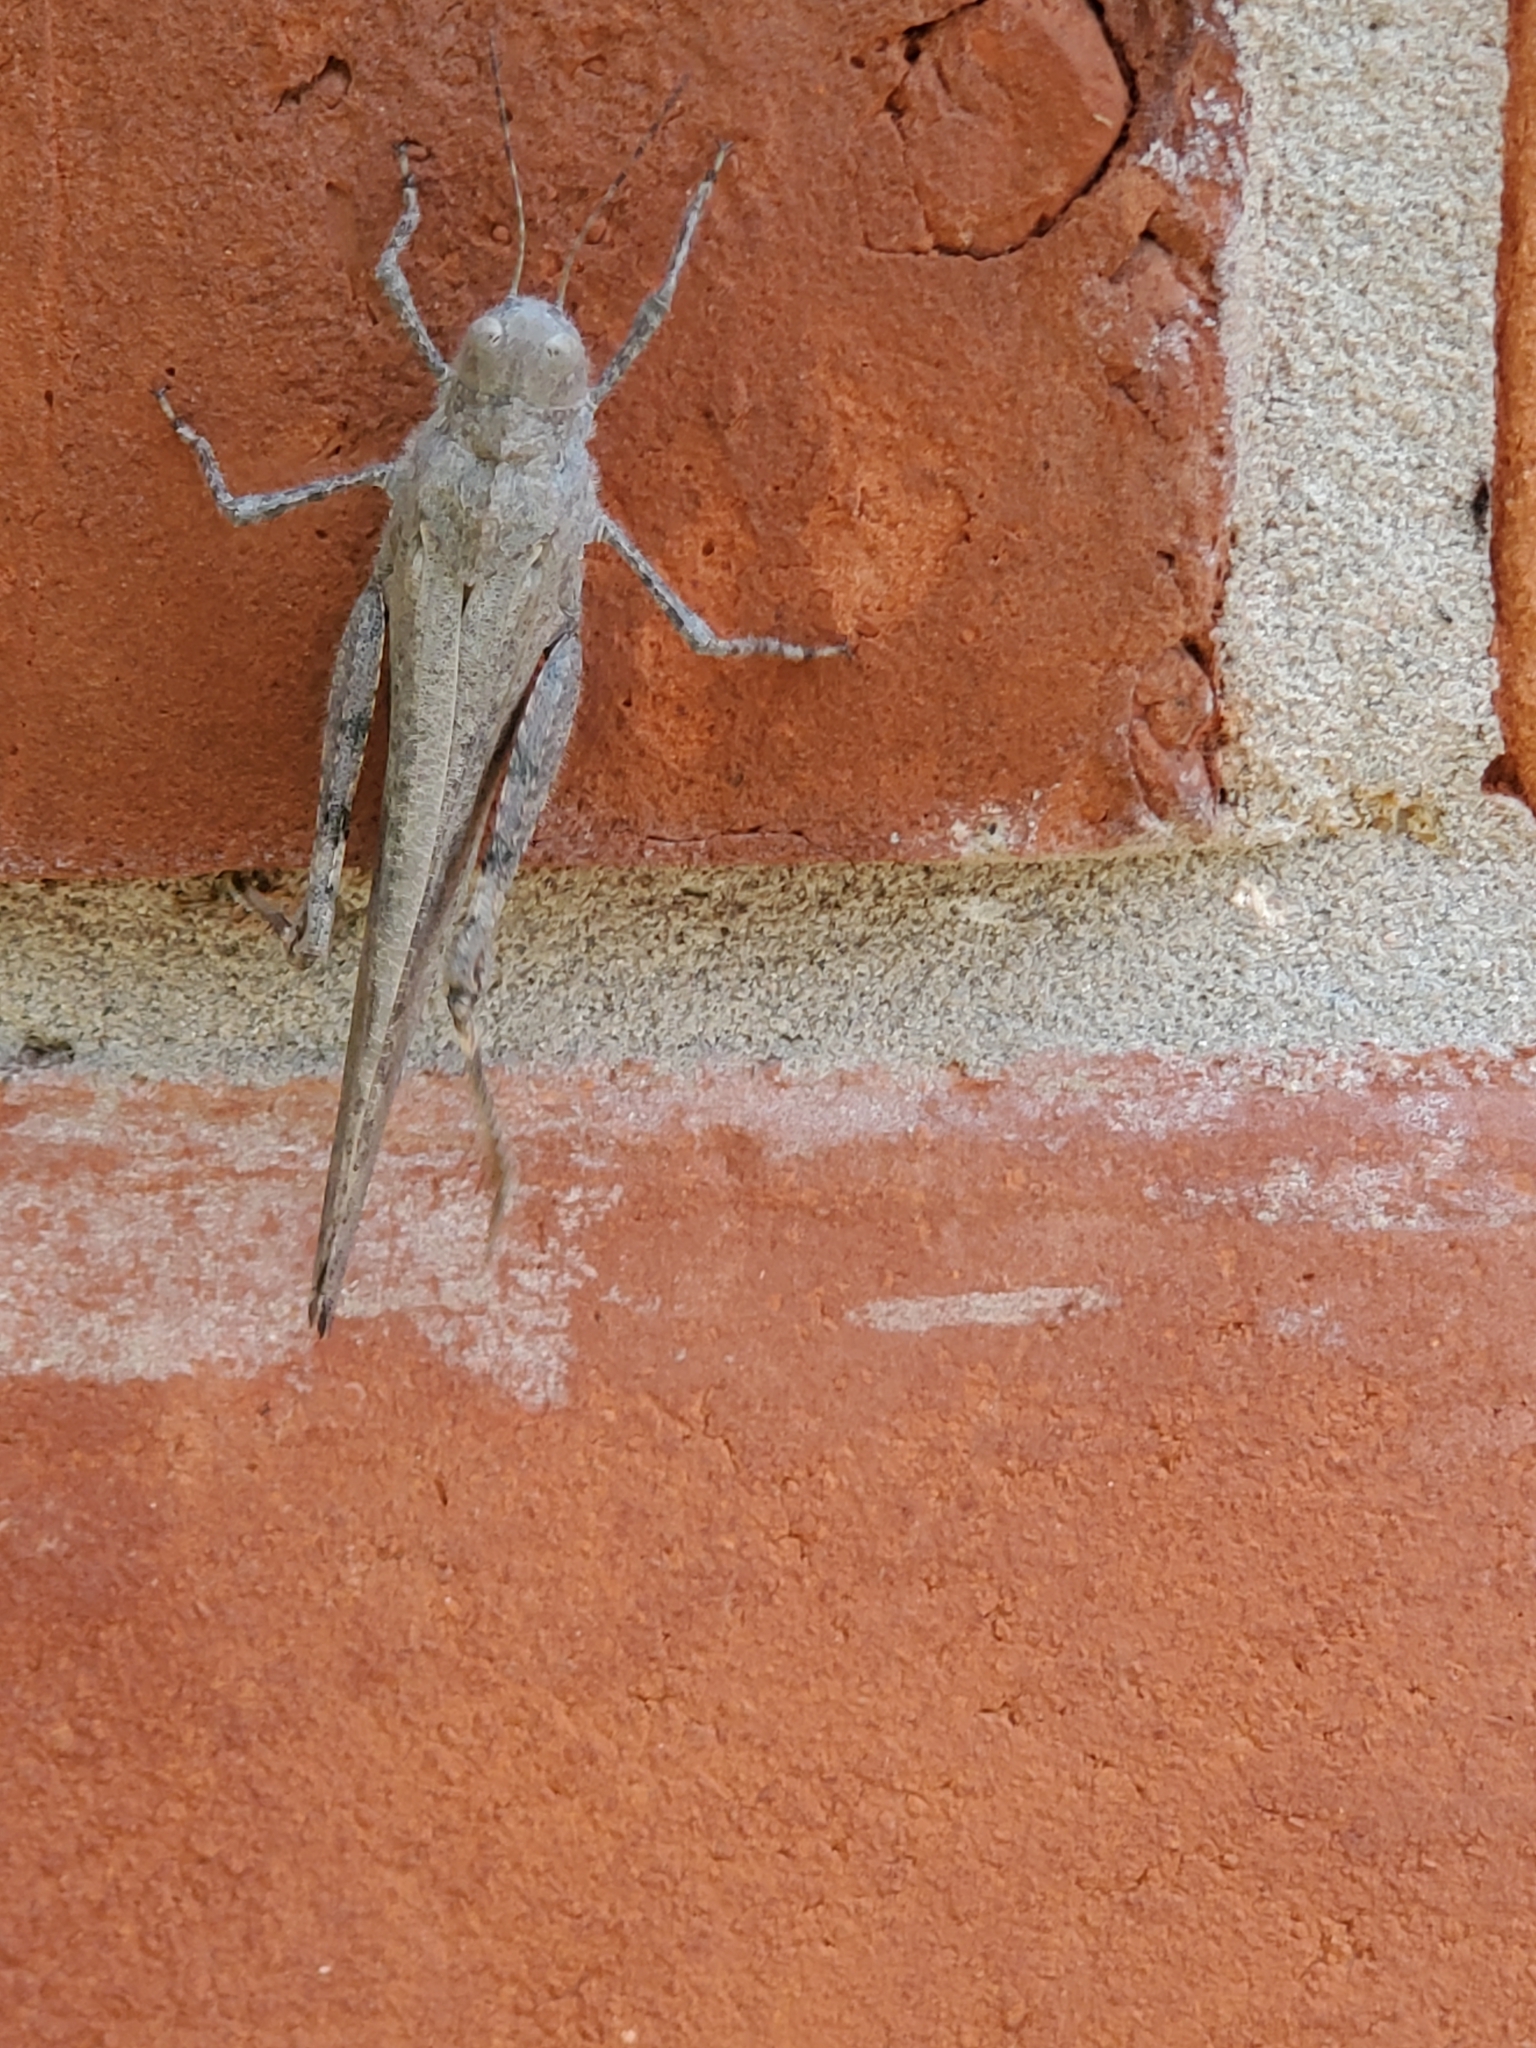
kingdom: Animalia
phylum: Arthropoda
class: Insecta
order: Orthoptera
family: Acrididae
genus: Dissosteira
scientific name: Dissosteira carolina
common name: Carolina grasshopper
